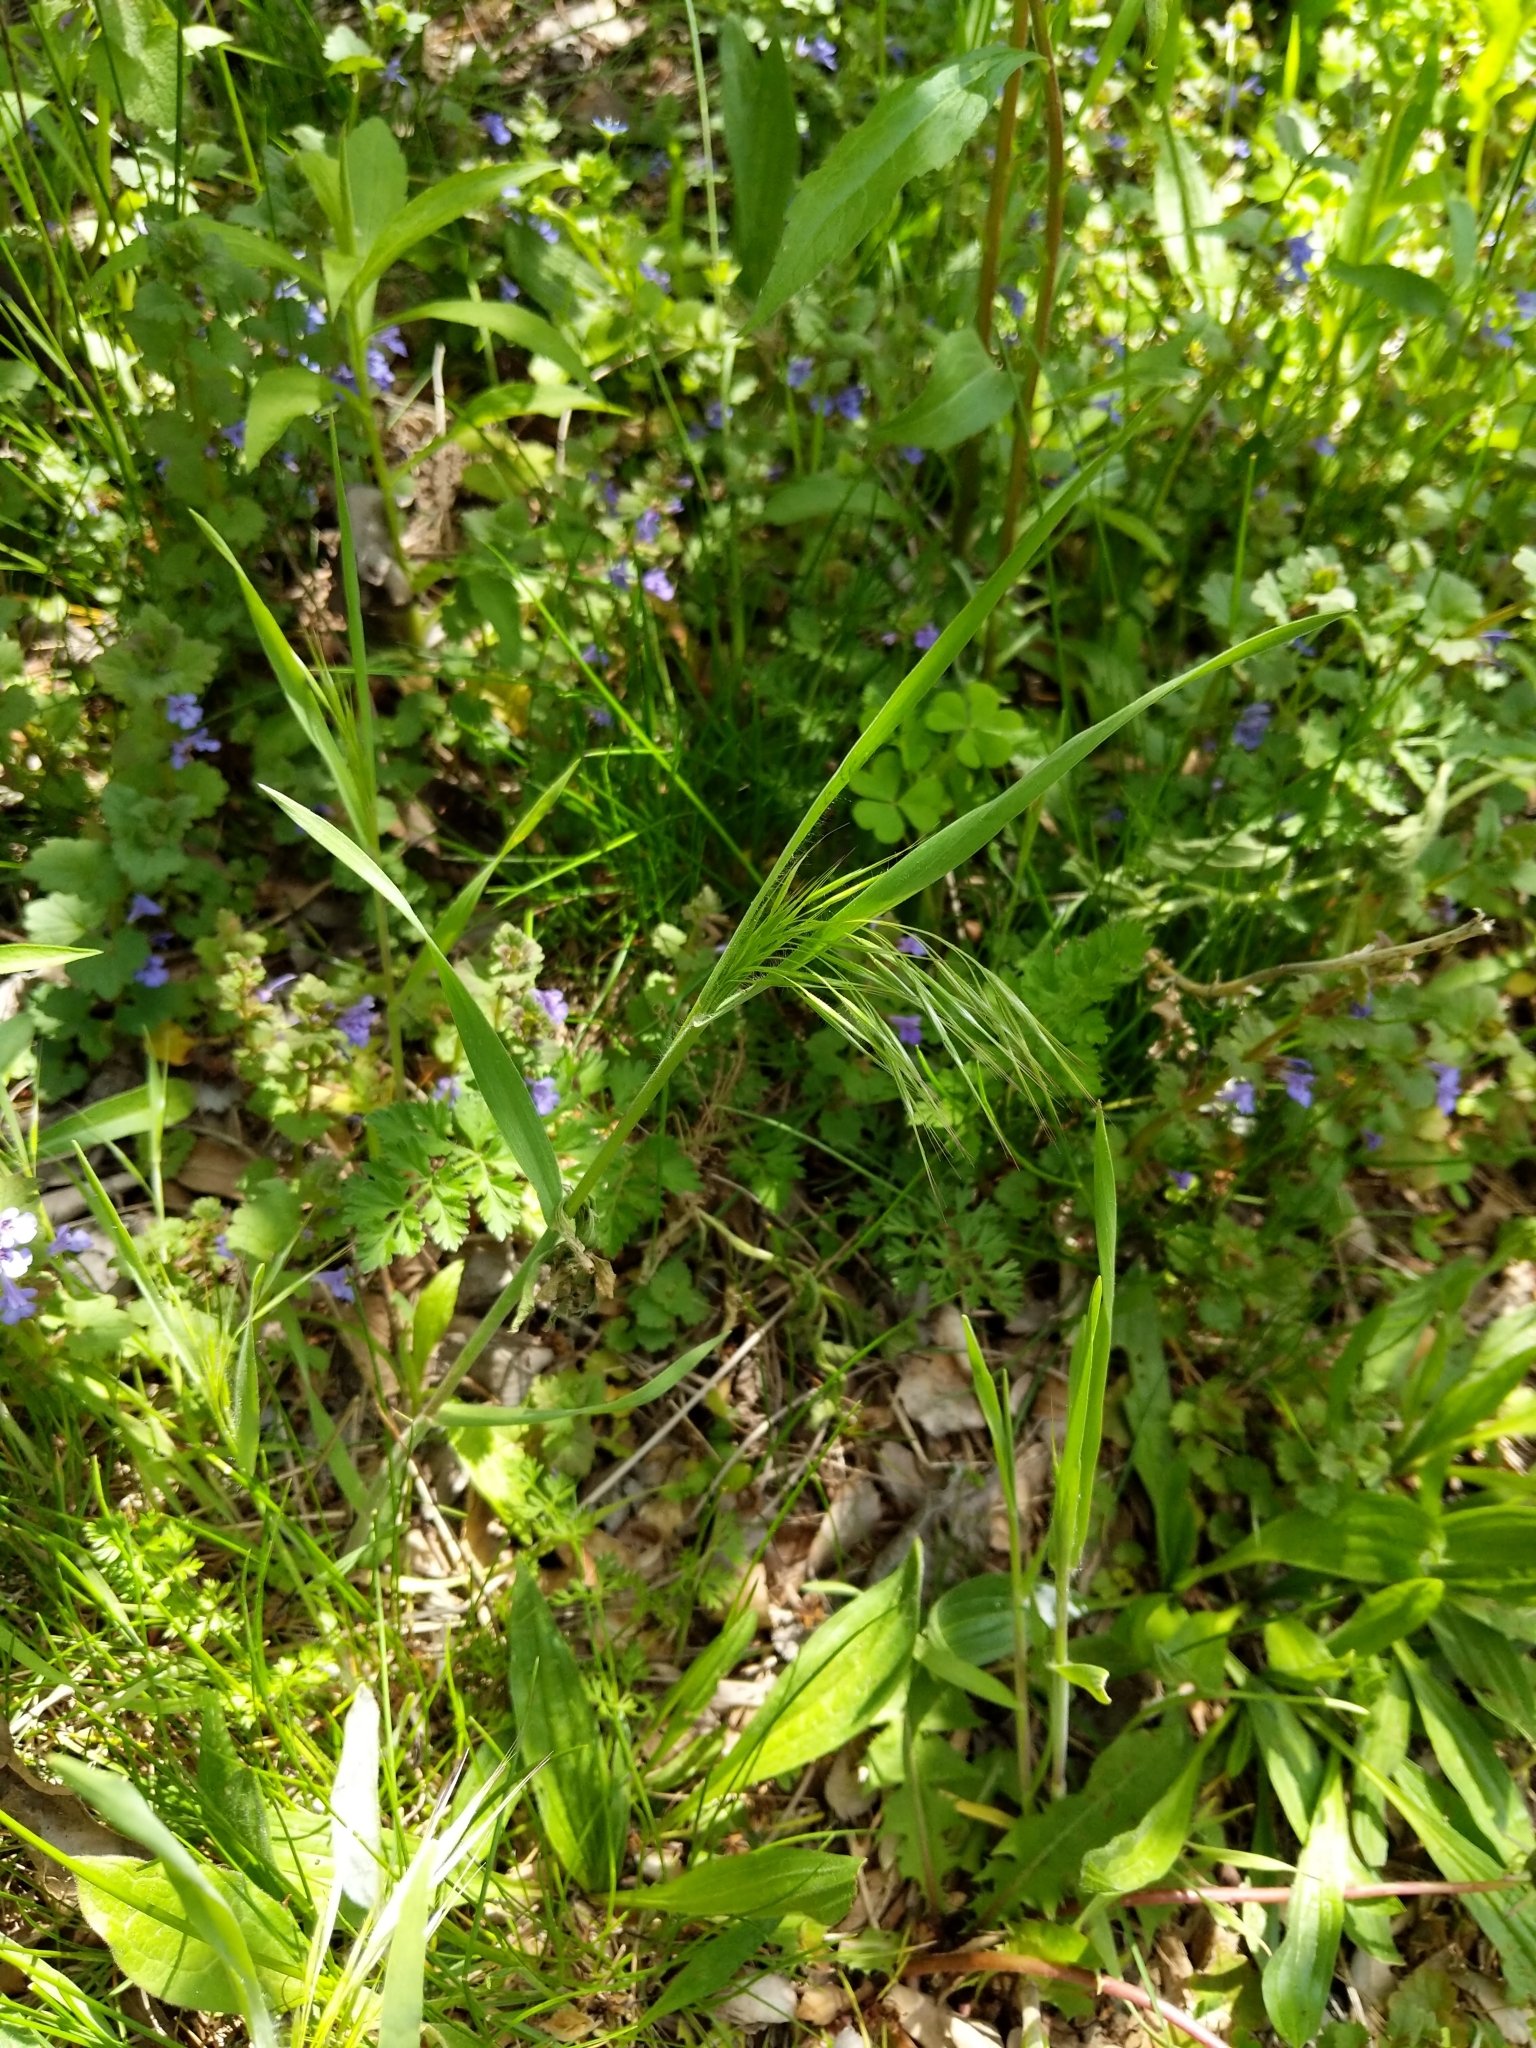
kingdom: Plantae
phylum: Tracheophyta
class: Liliopsida
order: Poales
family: Poaceae
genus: Bromus
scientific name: Bromus tectorum
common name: Cheatgrass
